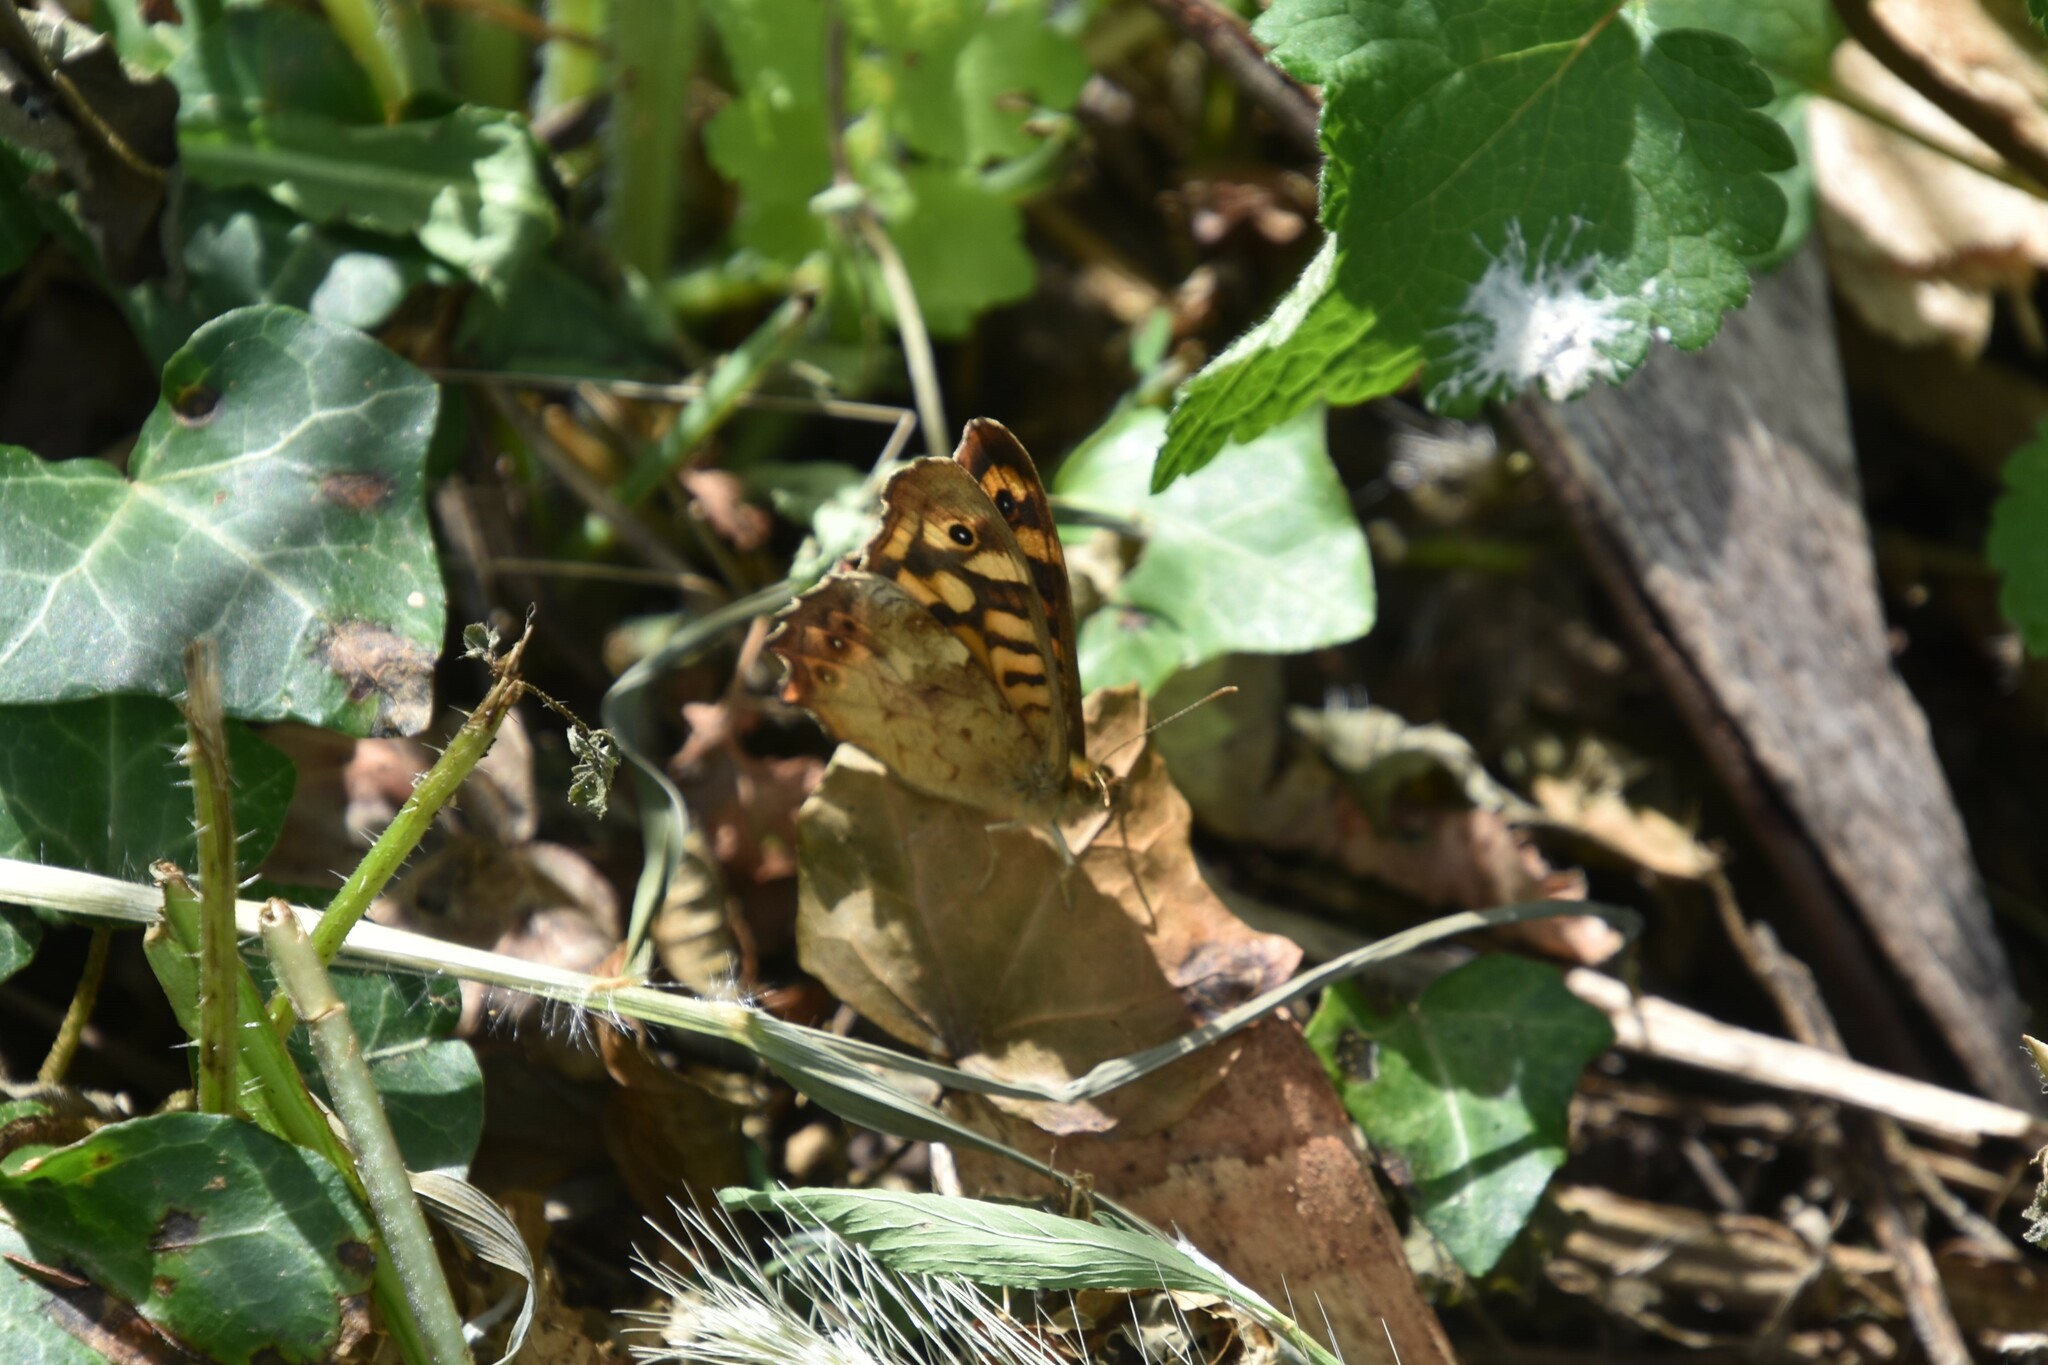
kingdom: Animalia
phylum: Arthropoda
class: Insecta
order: Lepidoptera
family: Nymphalidae
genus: Pararge
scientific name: Pararge aegeria
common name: Speckled wood
